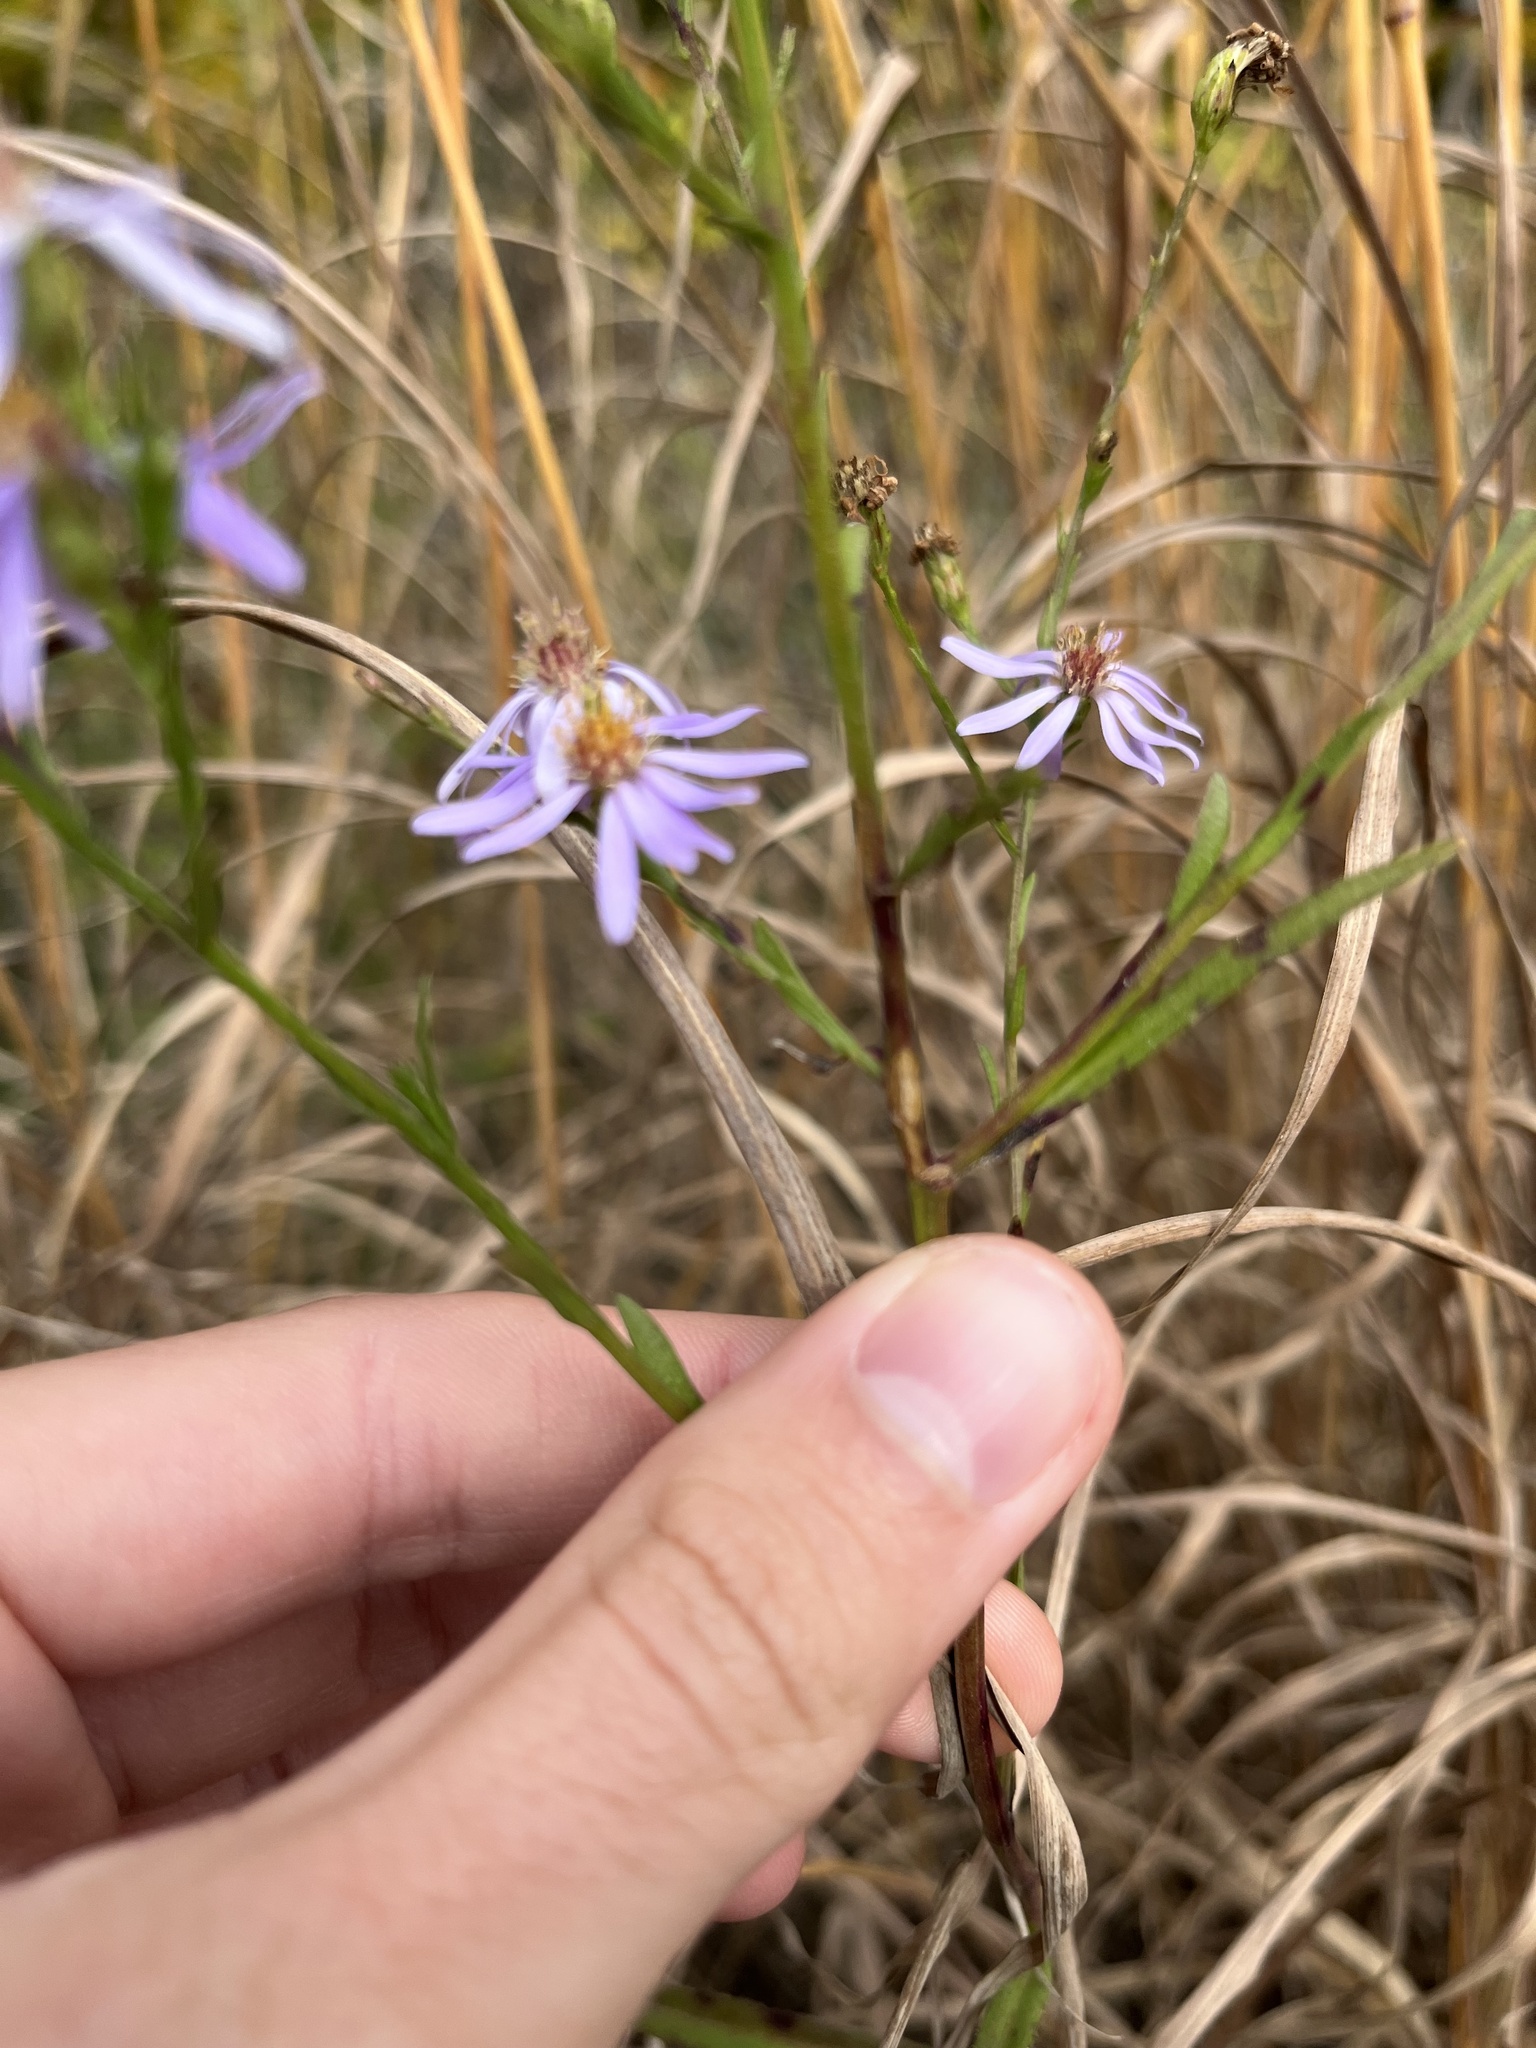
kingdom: Plantae
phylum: Tracheophyta
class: Magnoliopsida
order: Asterales
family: Asteraceae
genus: Symphyotrichum
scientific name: Symphyotrichum oolentangiense
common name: Azure aster
